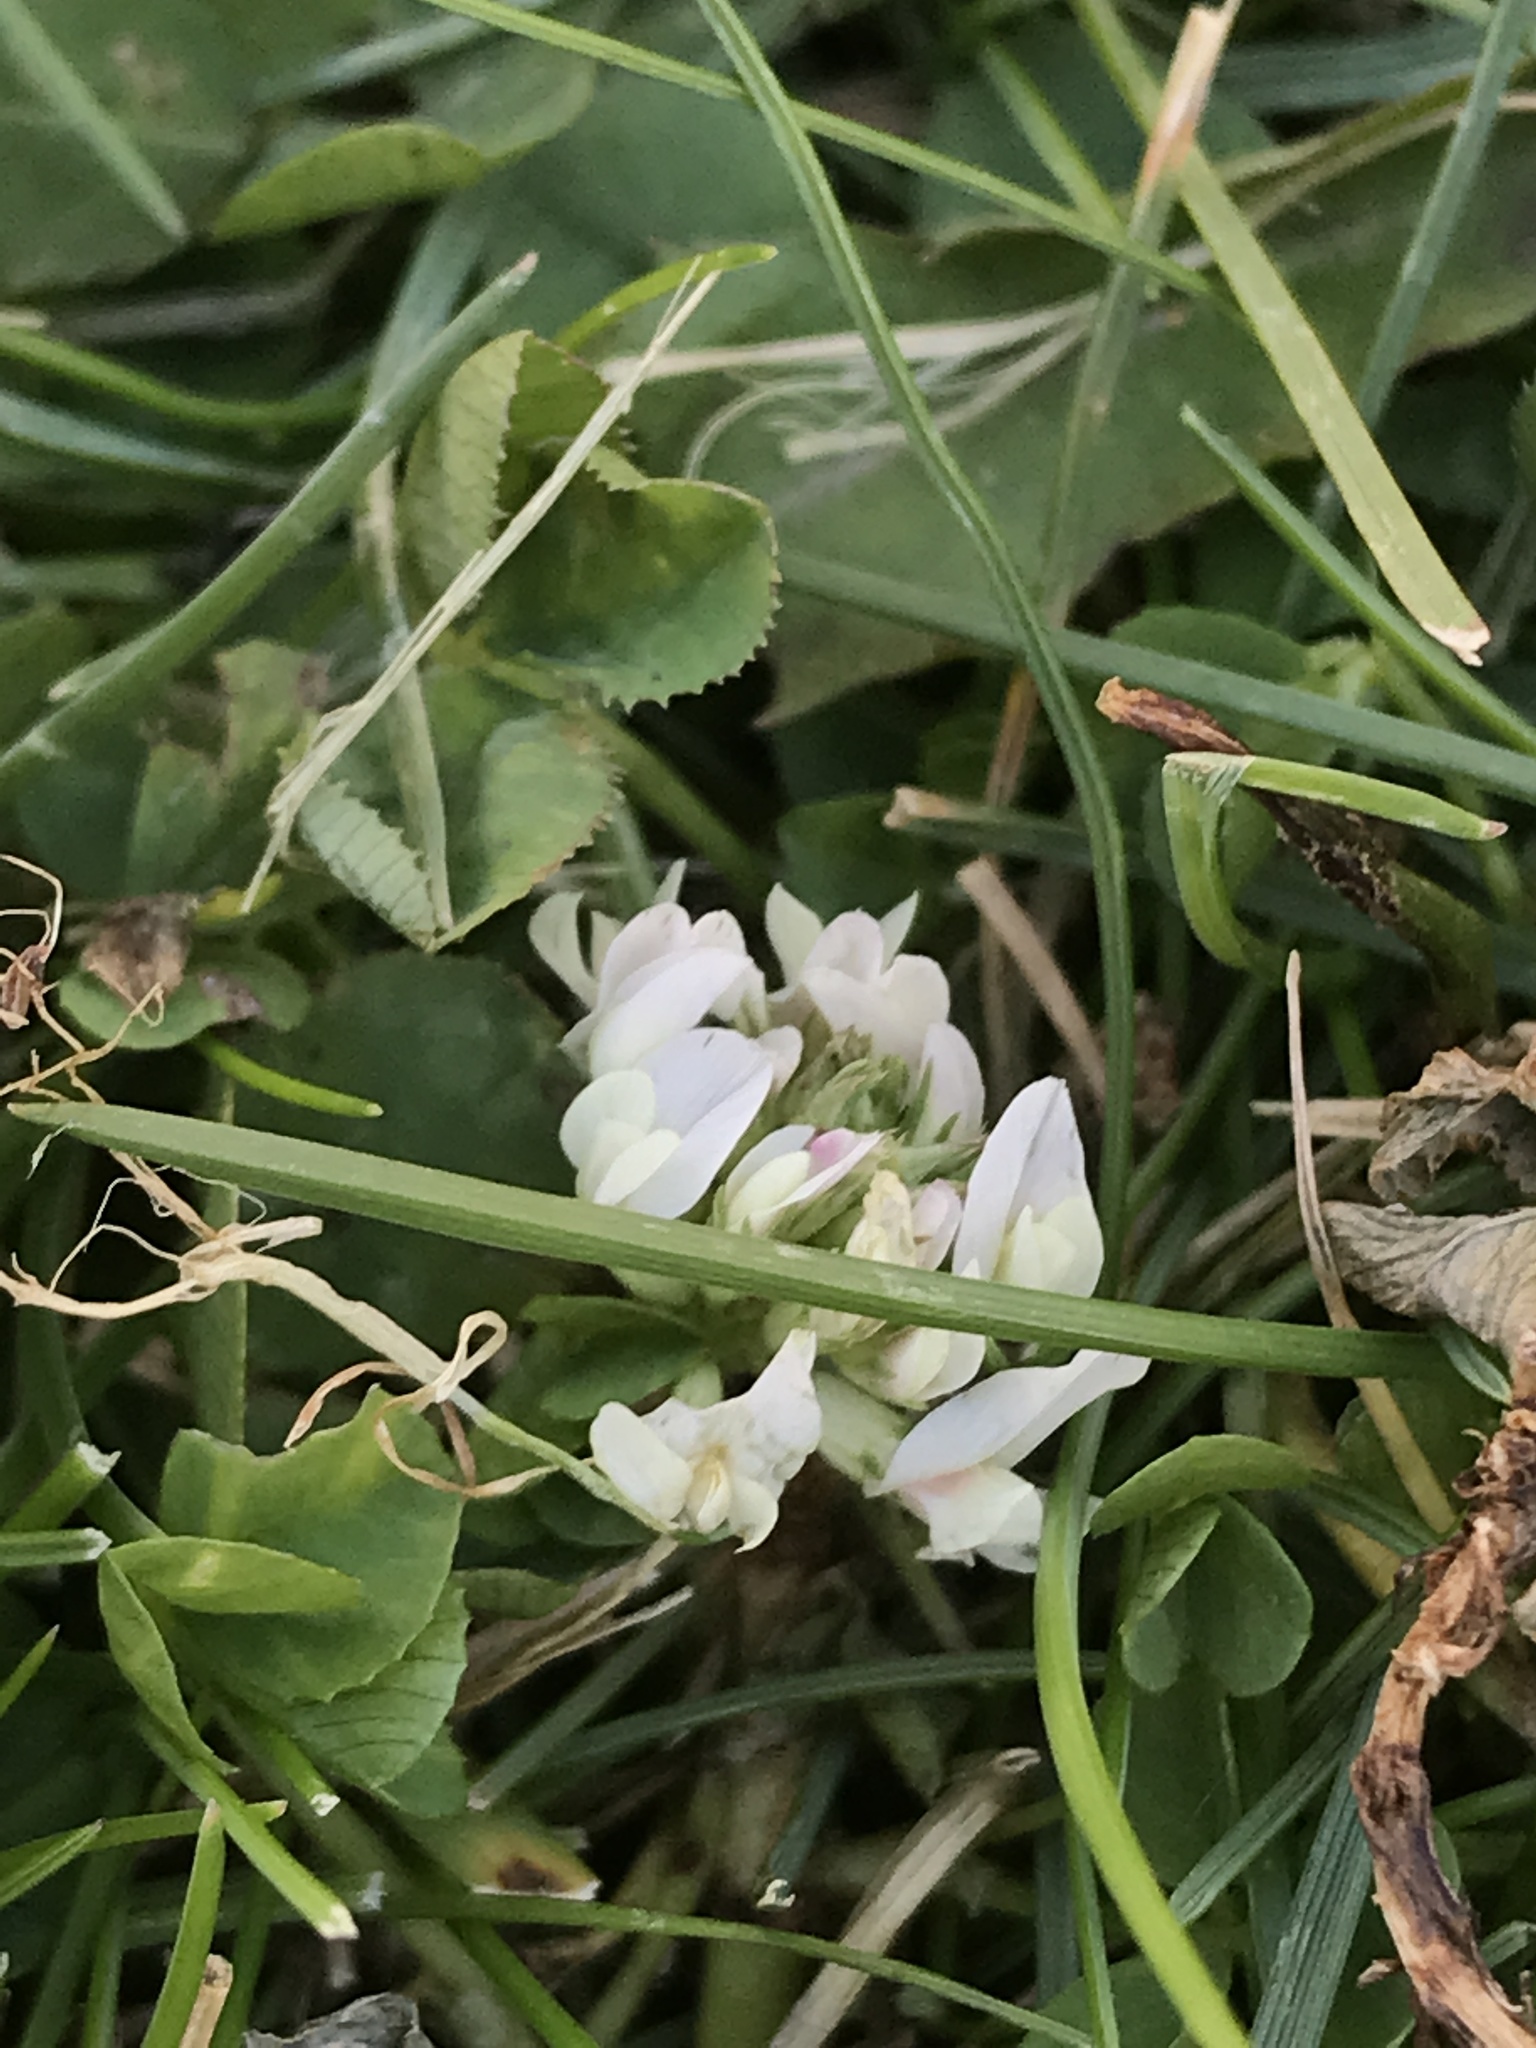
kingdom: Plantae
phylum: Tracheophyta
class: Magnoliopsida
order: Fabales
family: Fabaceae
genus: Trifolium
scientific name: Trifolium repens
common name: White clover
